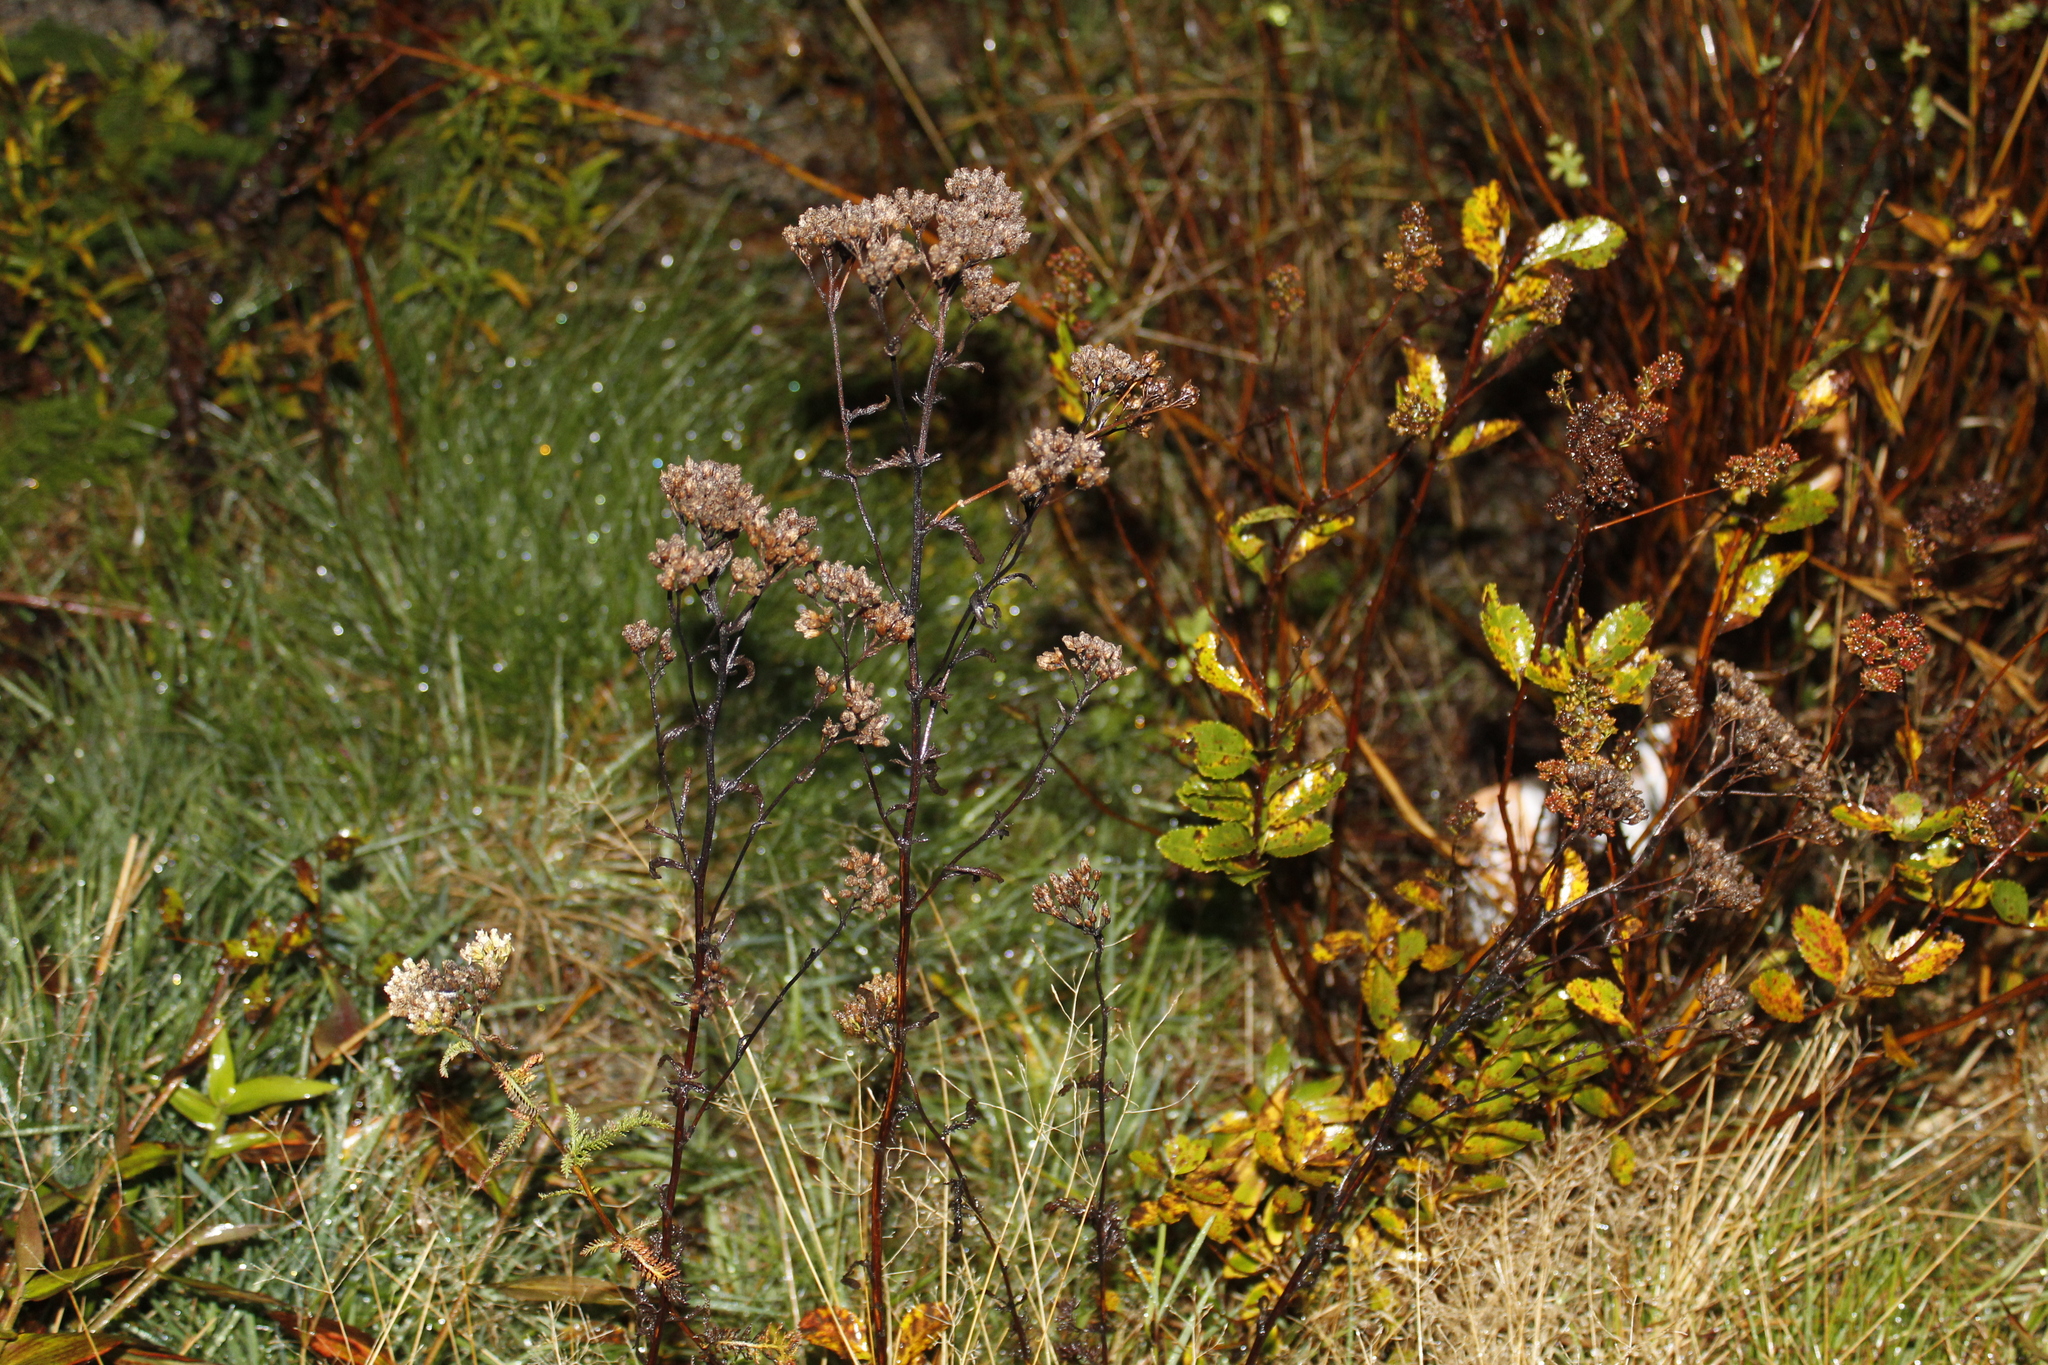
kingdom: Plantae
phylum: Tracheophyta
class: Magnoliopsida
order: Asterales
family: Asteraceae
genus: Achillea
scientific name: Achillea millefolium
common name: Yarrow
